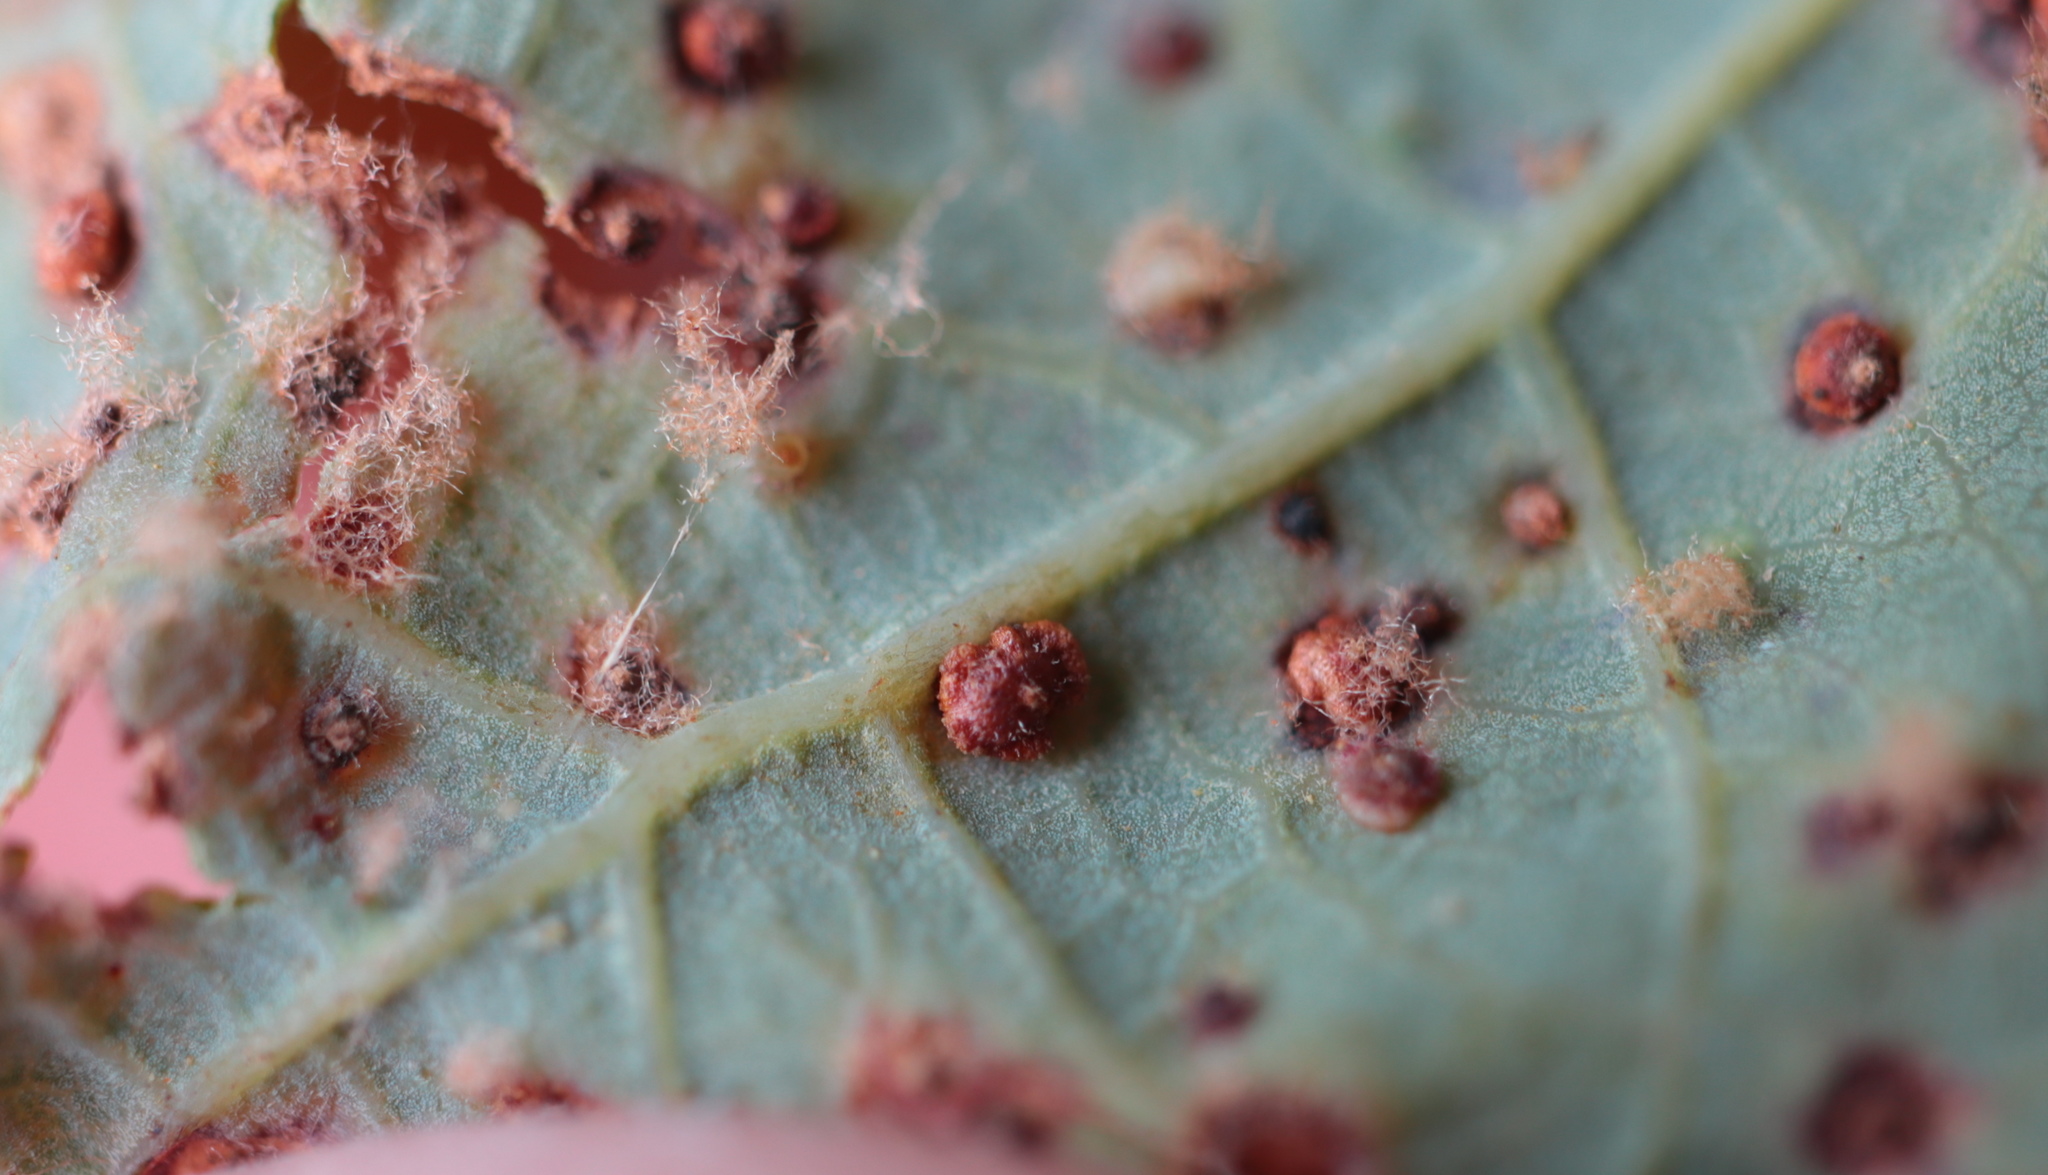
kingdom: Animalia
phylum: Arthropoda
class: Insecta
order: Hymenoptera
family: Cynipidae
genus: Neuroterus
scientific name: Neuroterus
